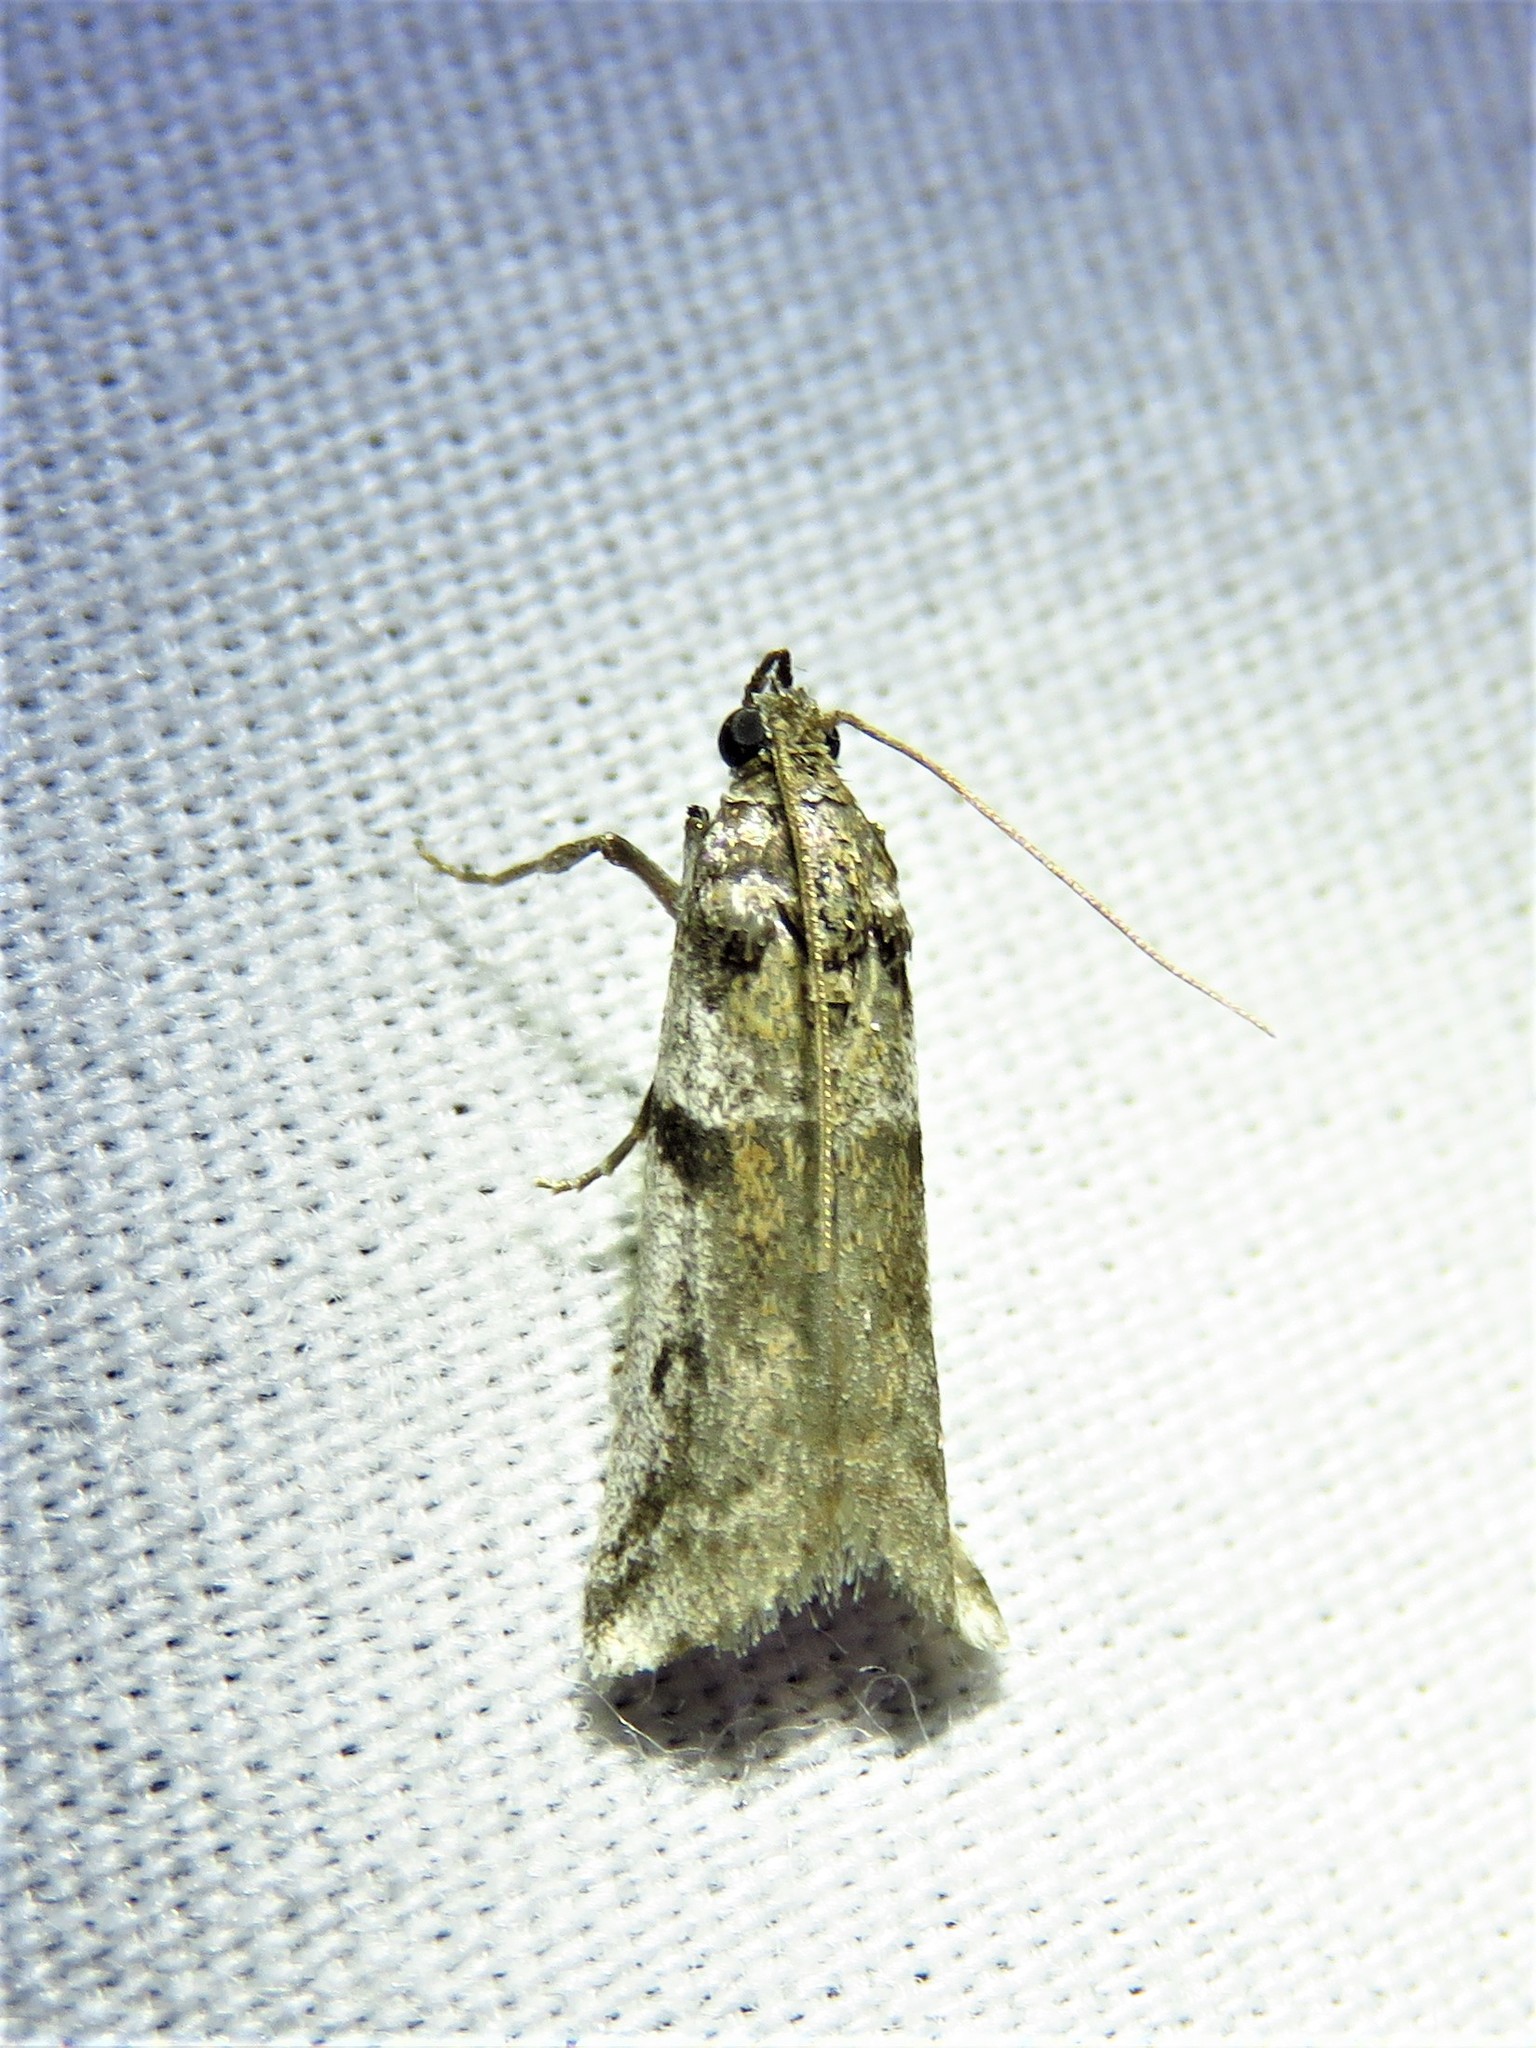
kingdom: Animalia
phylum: Arthropoda
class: Insecta
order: Lepidoptera
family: Pyralidae
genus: Laetilia
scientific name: Laetilia coccidivora
